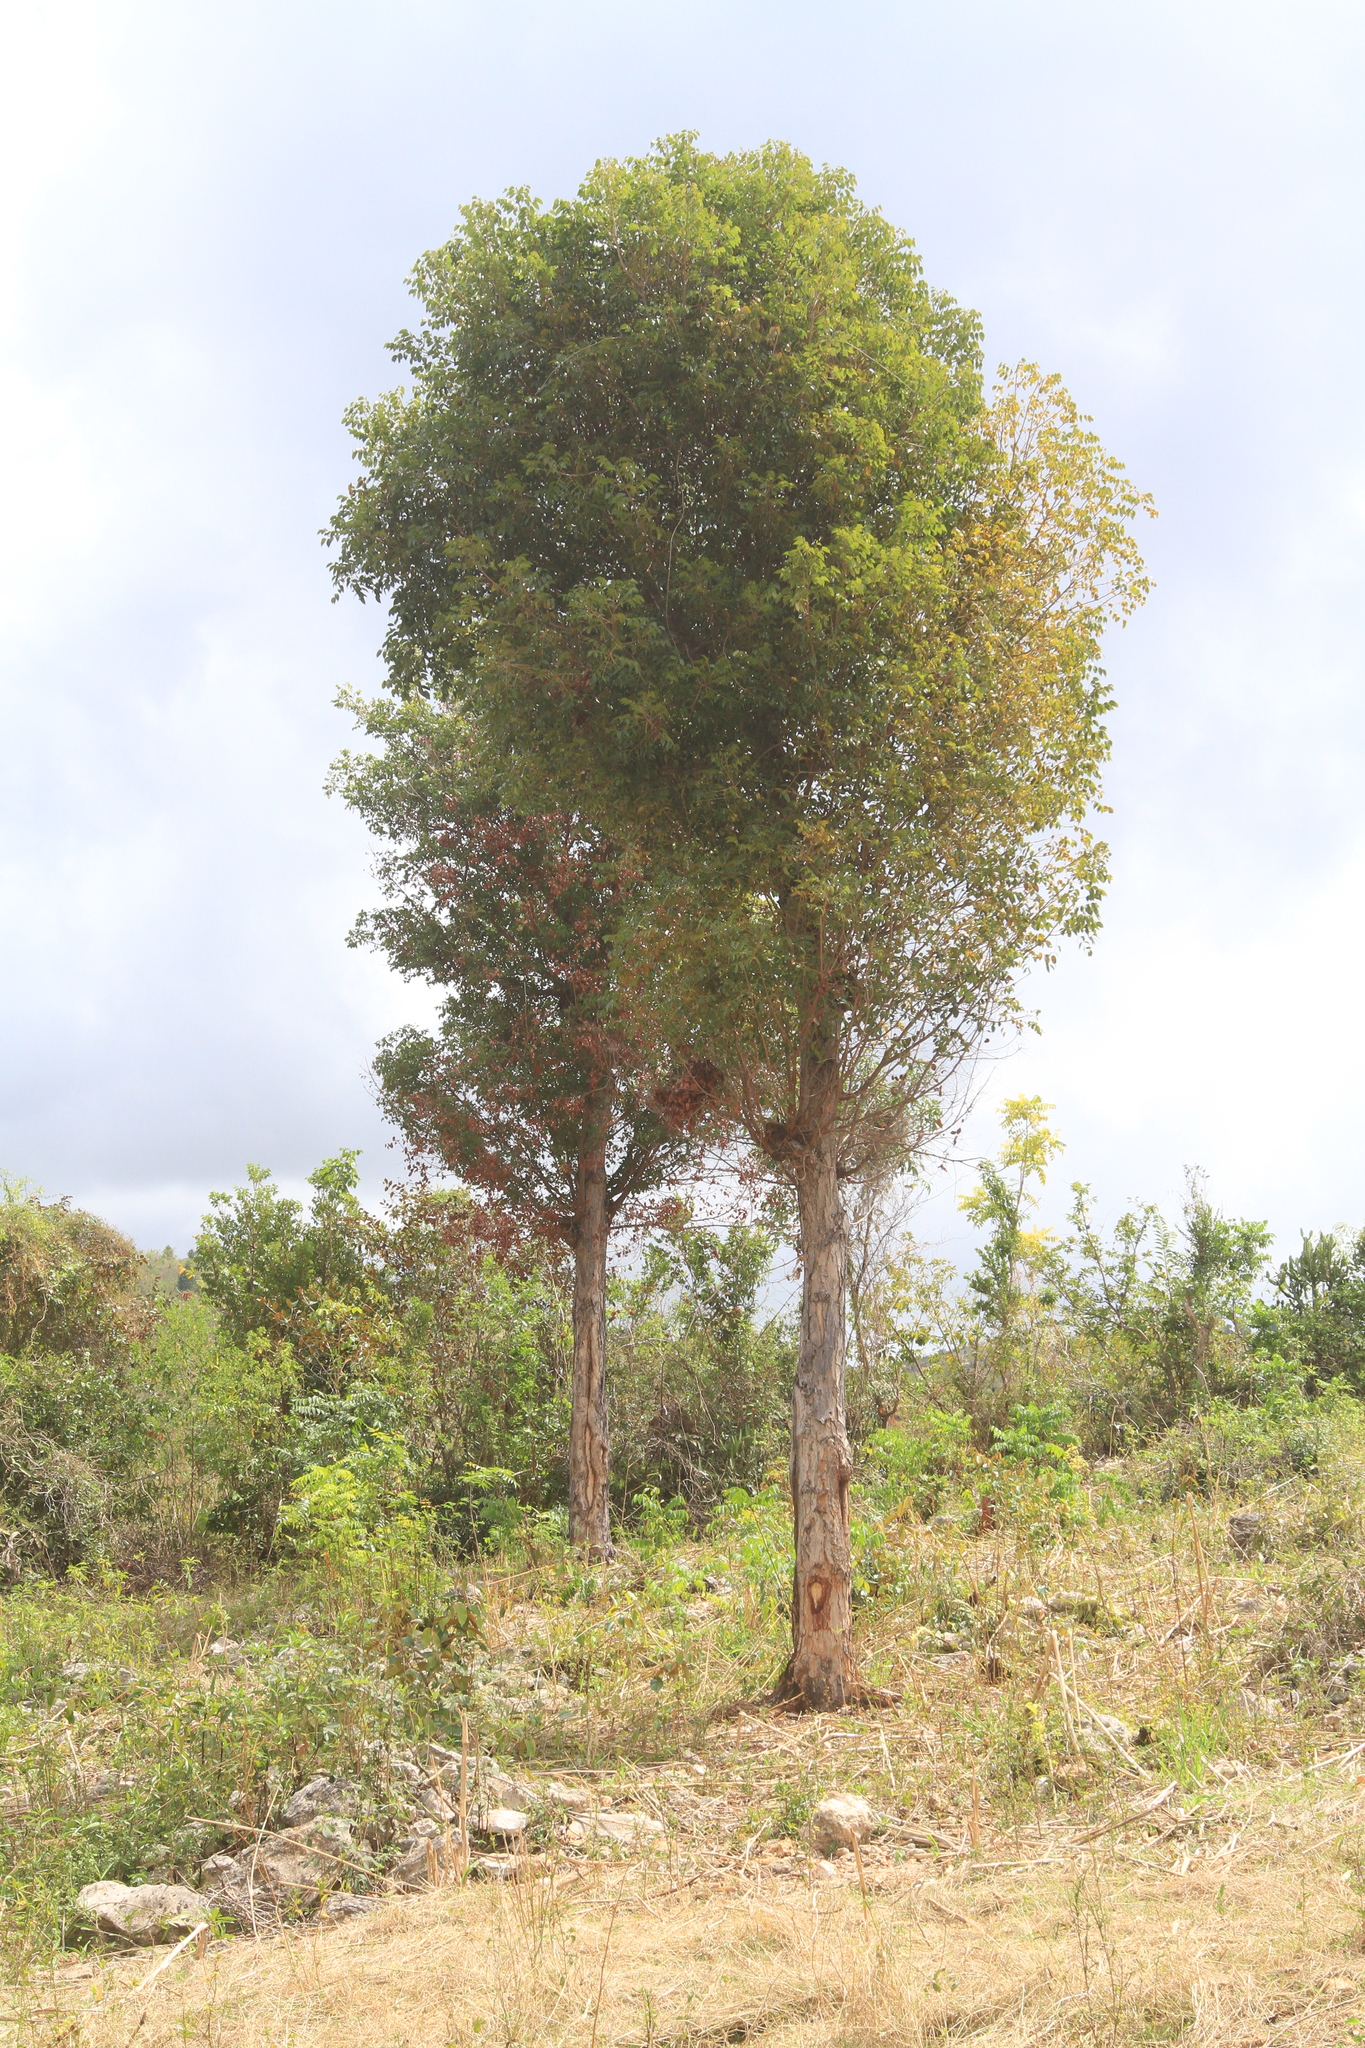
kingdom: Plantae
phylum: Tracheophyta
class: Magnoliopsida
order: Sapindales
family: Meliaceae
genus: Swietenia
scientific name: Swietenia mahagoni
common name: West indian mahogany
